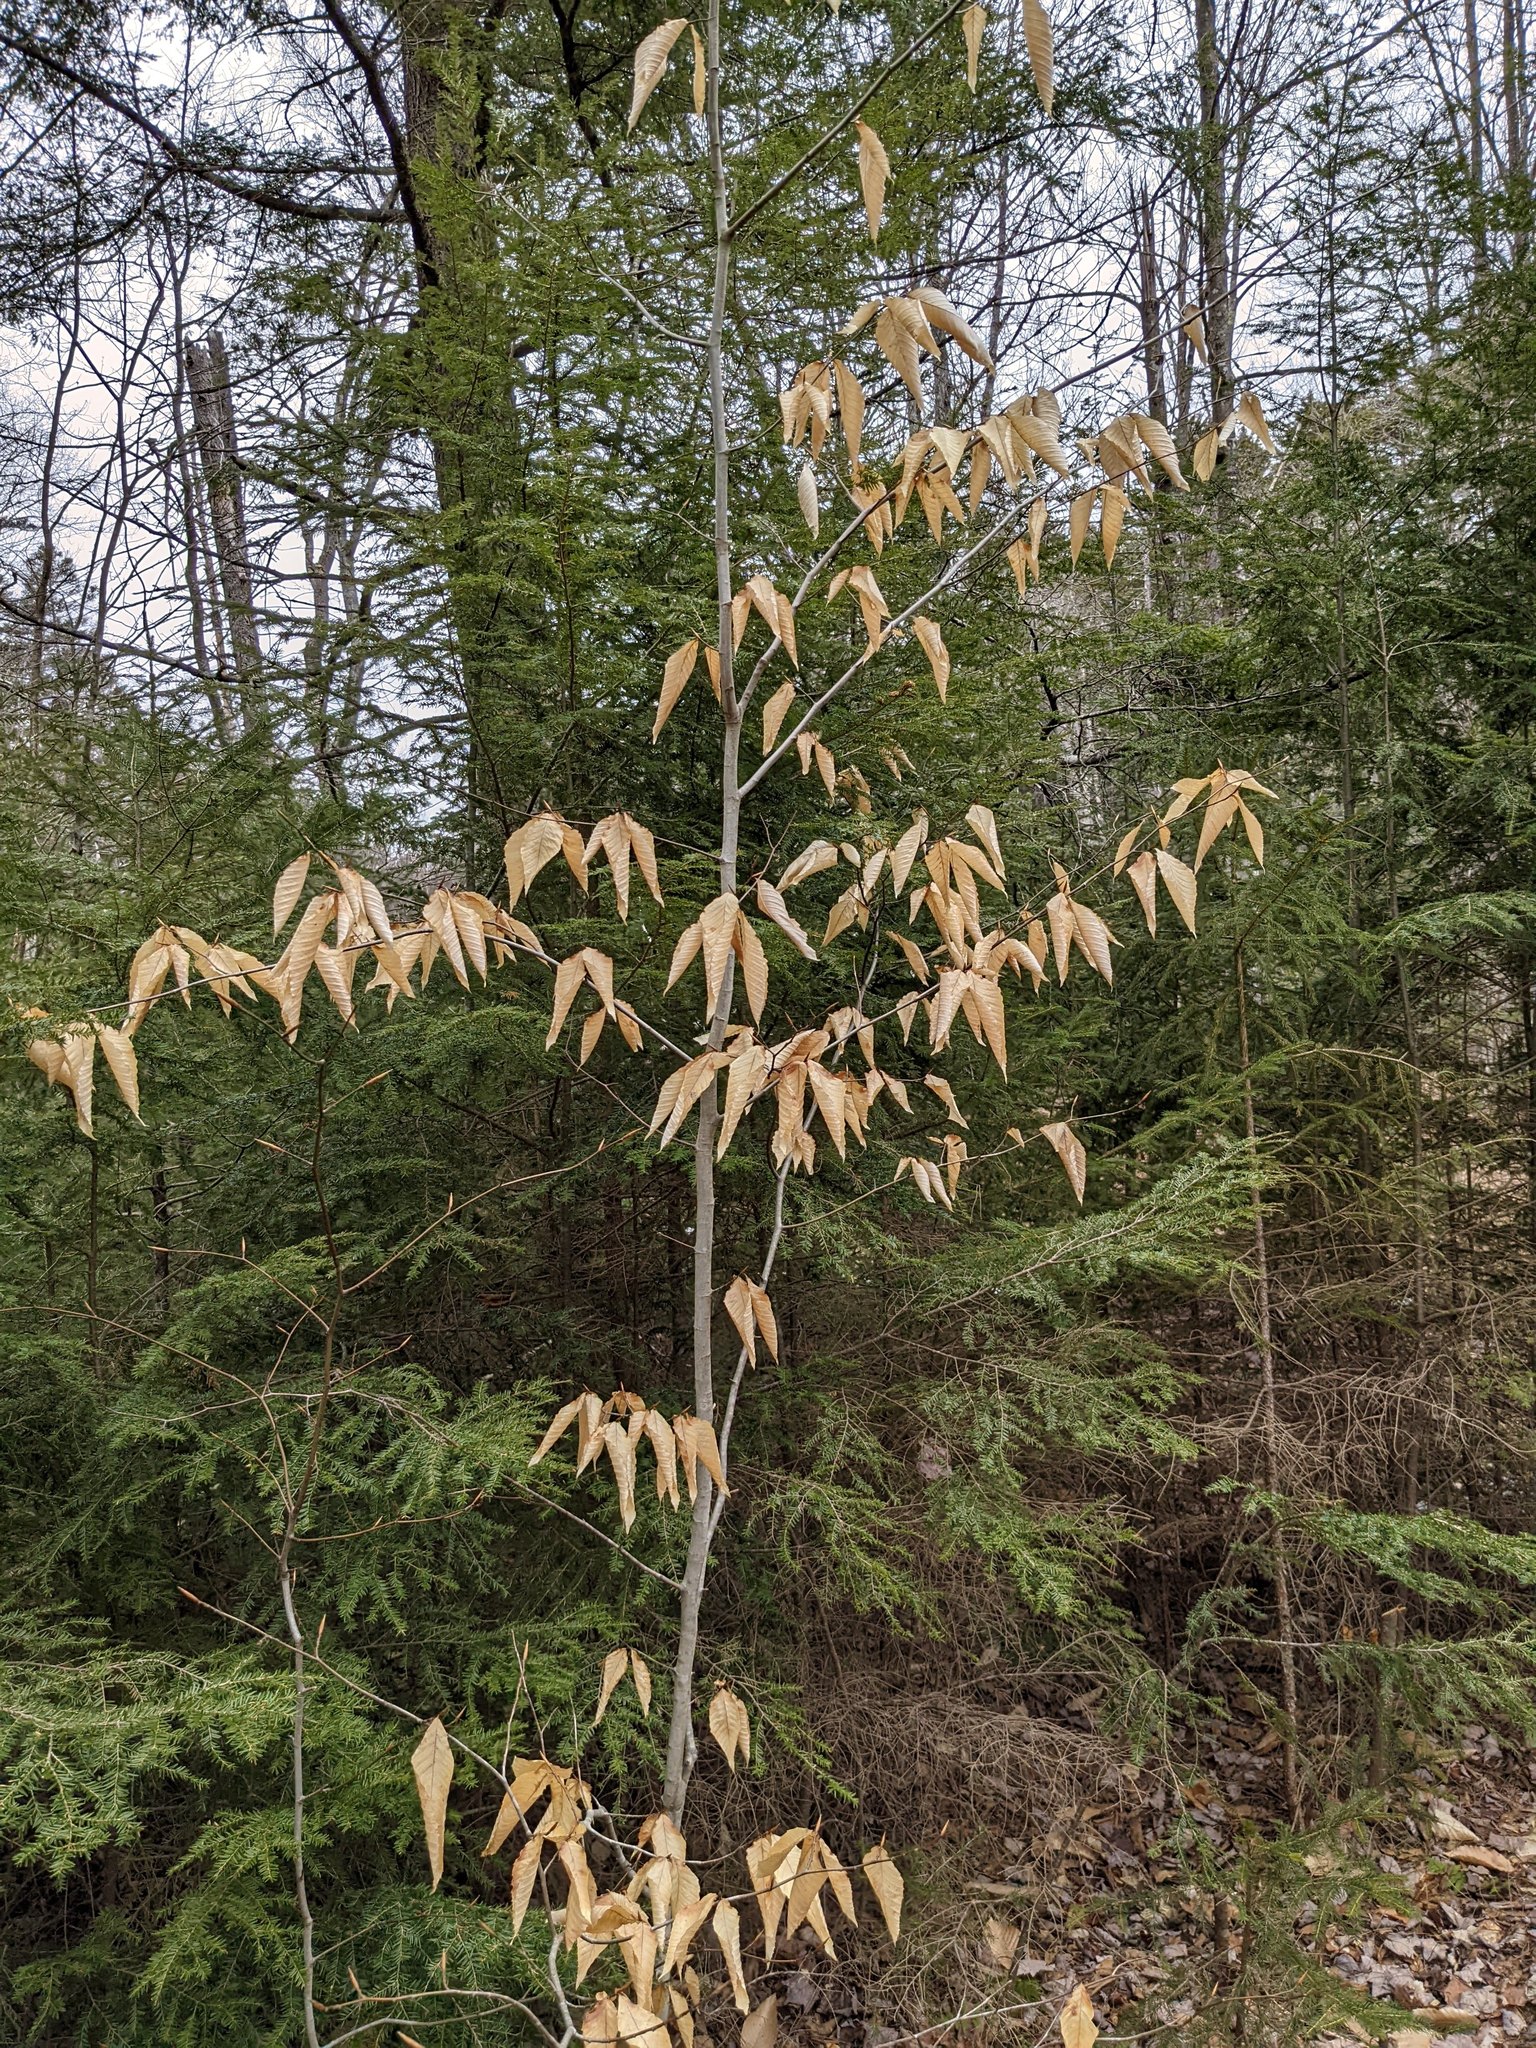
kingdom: Plantae
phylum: Tracheophyta
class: Magnoliopsida
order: Fagales
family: Fagaceae
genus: Fagus
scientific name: Fagus grandifolia
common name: American beech
